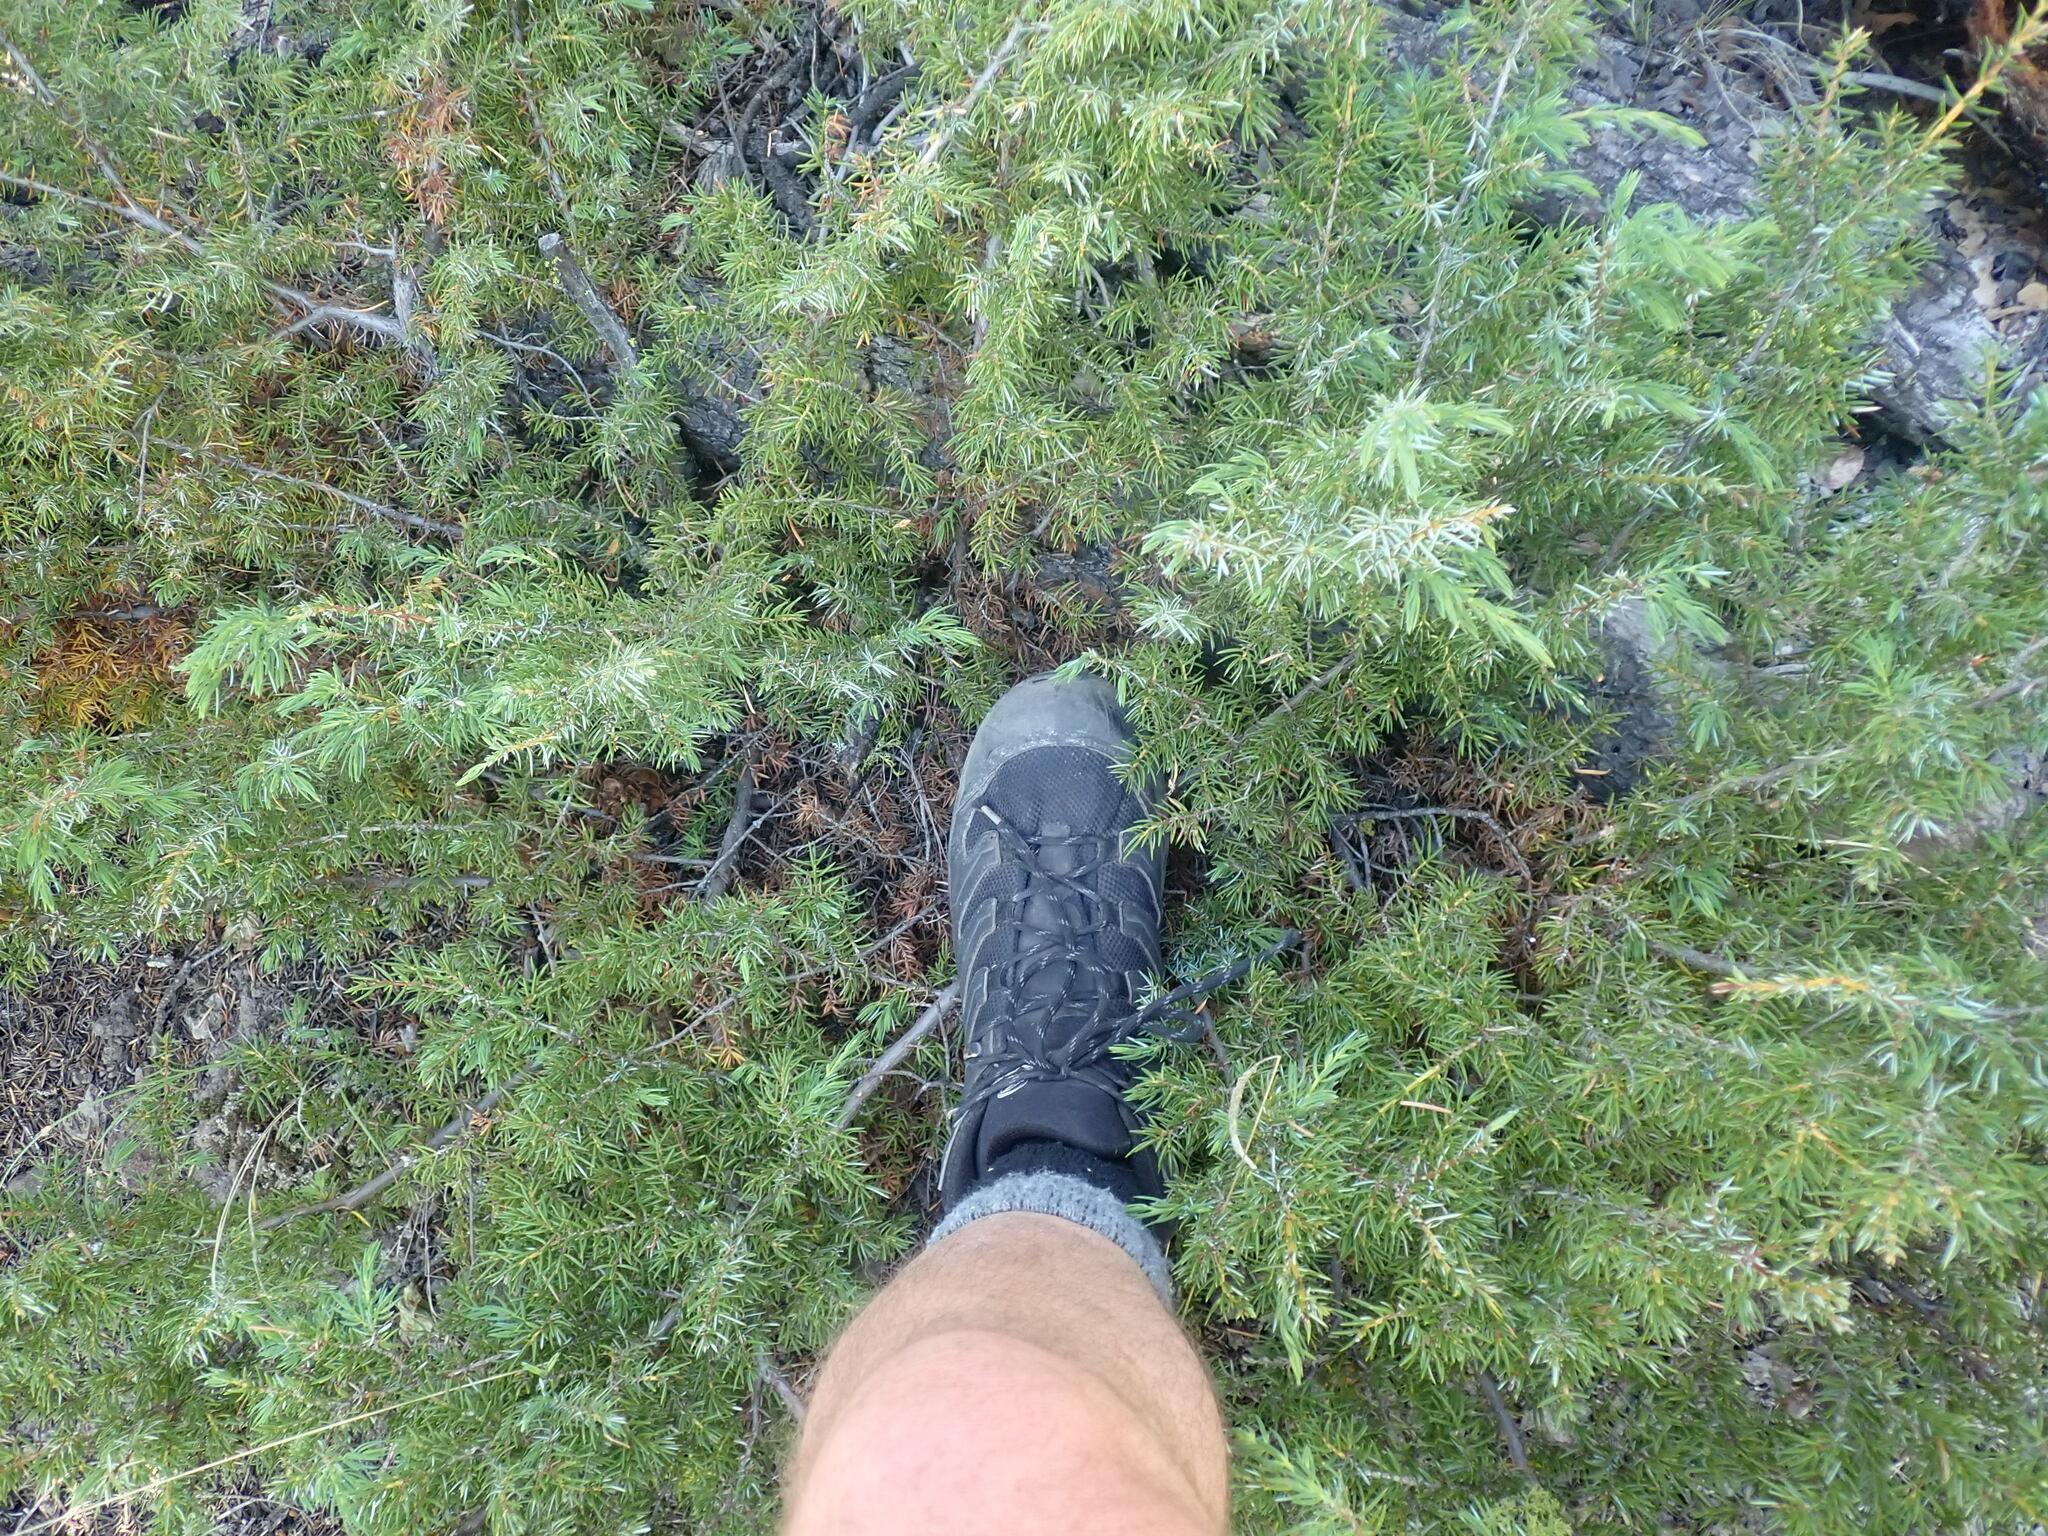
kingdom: Plantae
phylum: Tracheophyta
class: Pinopsida
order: Pinales
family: Cupressaceae
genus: Juniperus
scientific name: Juniperus communis
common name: Common juniper
